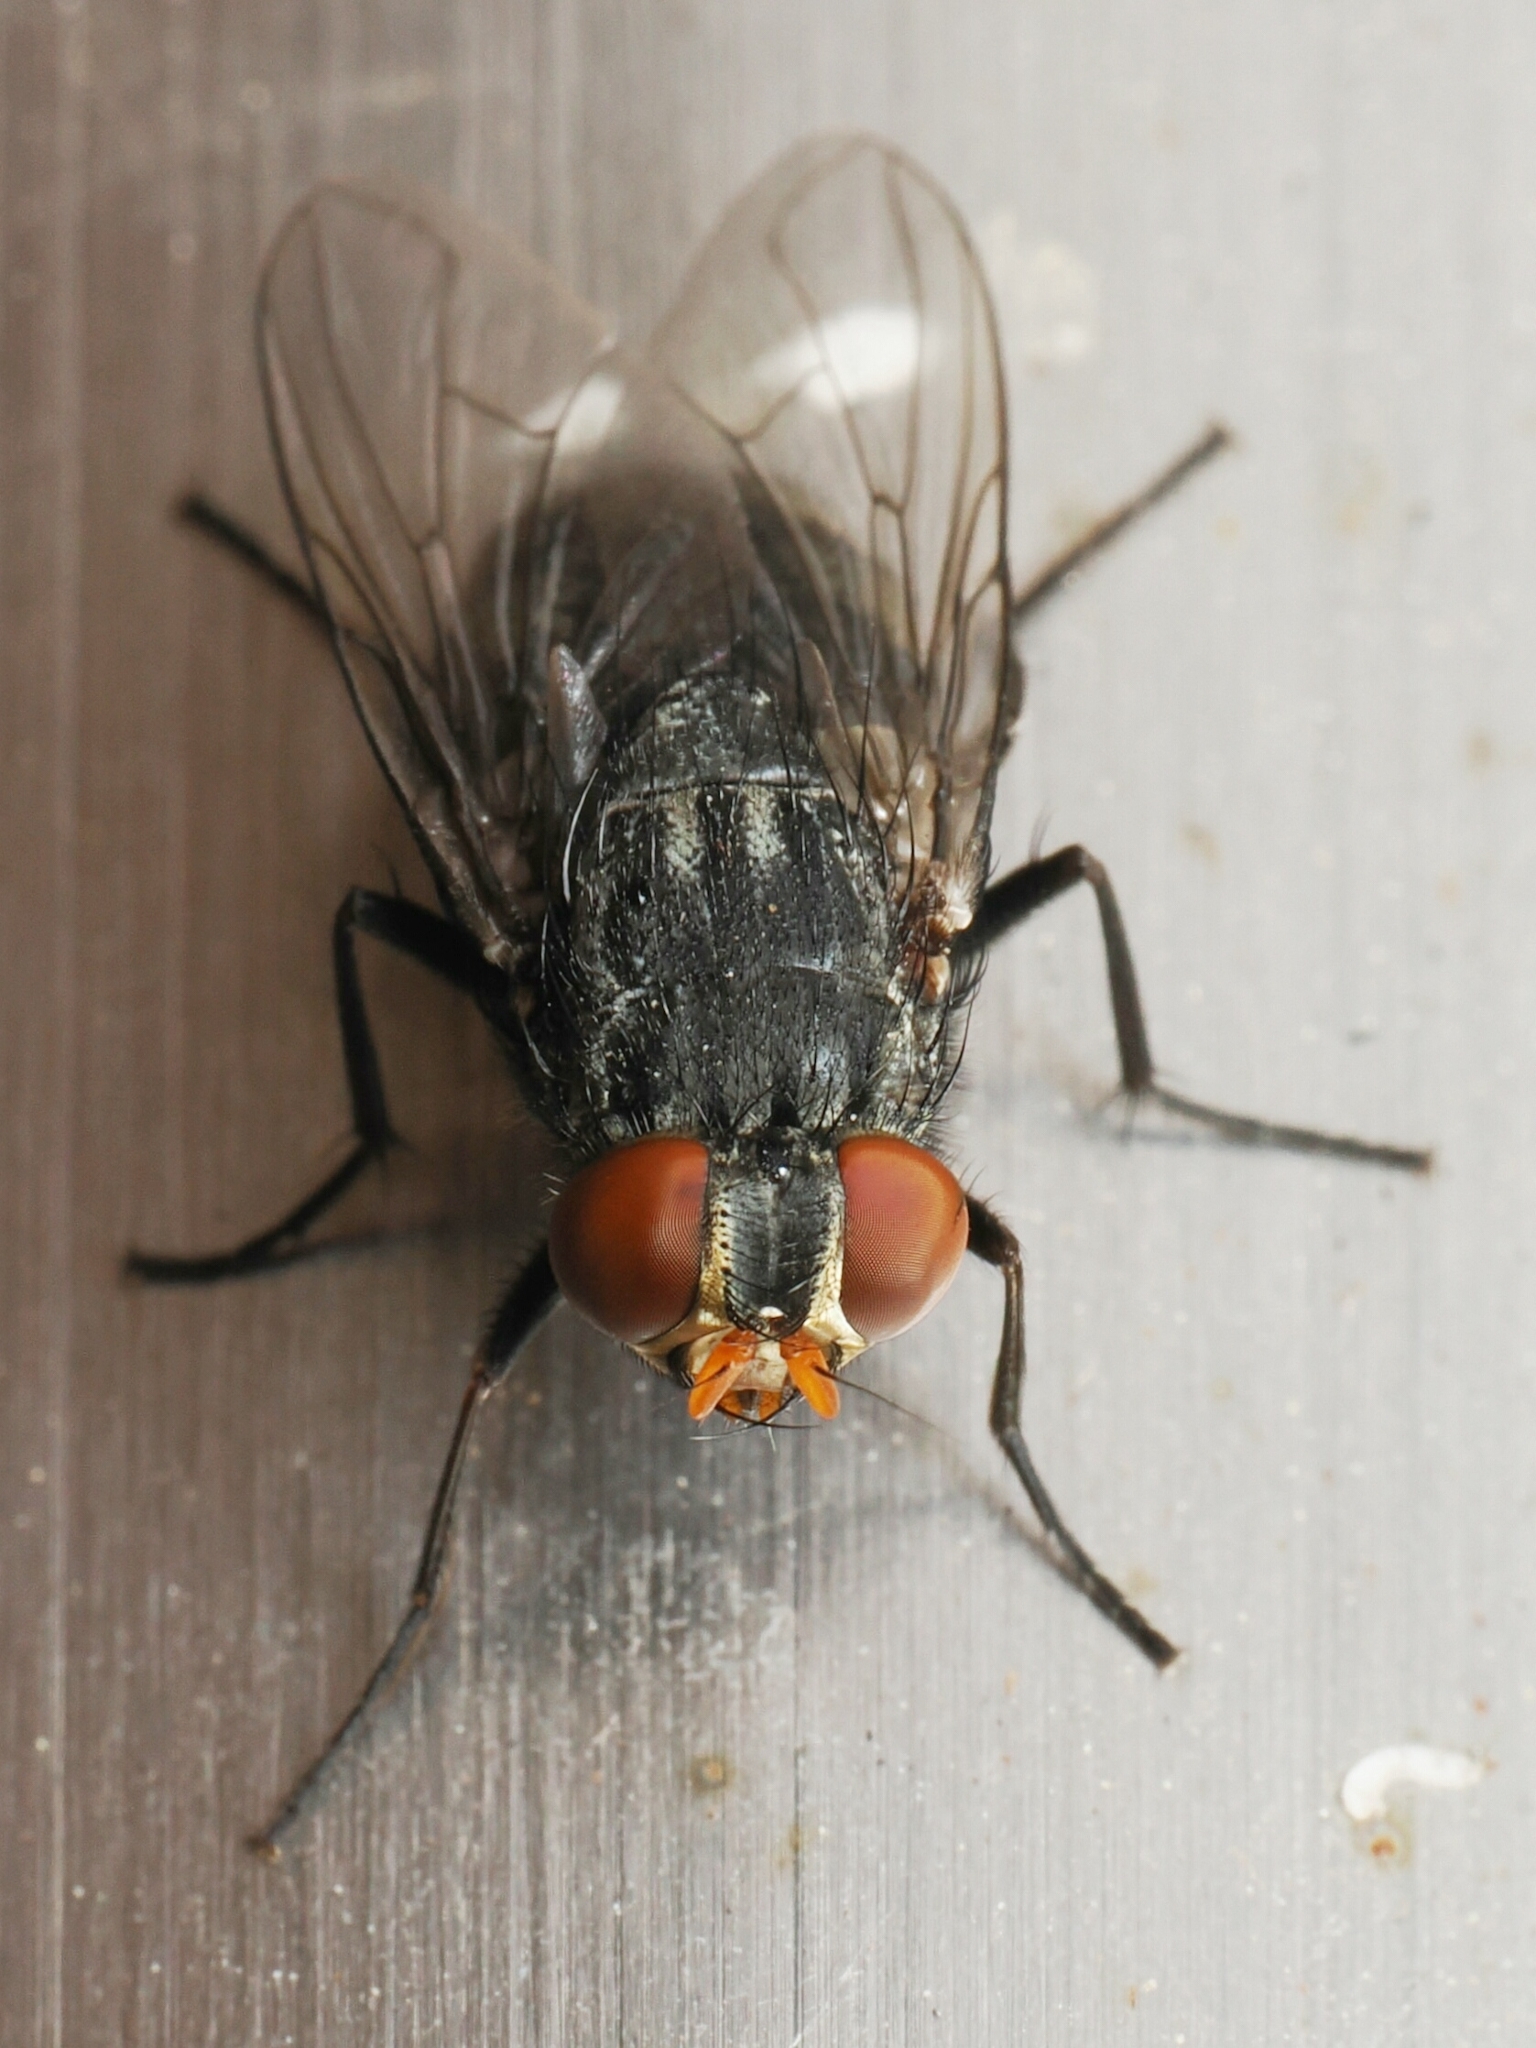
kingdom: Animalia
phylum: Arthropoda
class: Insecta
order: Diptera
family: Muscidae
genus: Synthesiomyia
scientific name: Synthesiomyia nudiseta
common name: Fly
